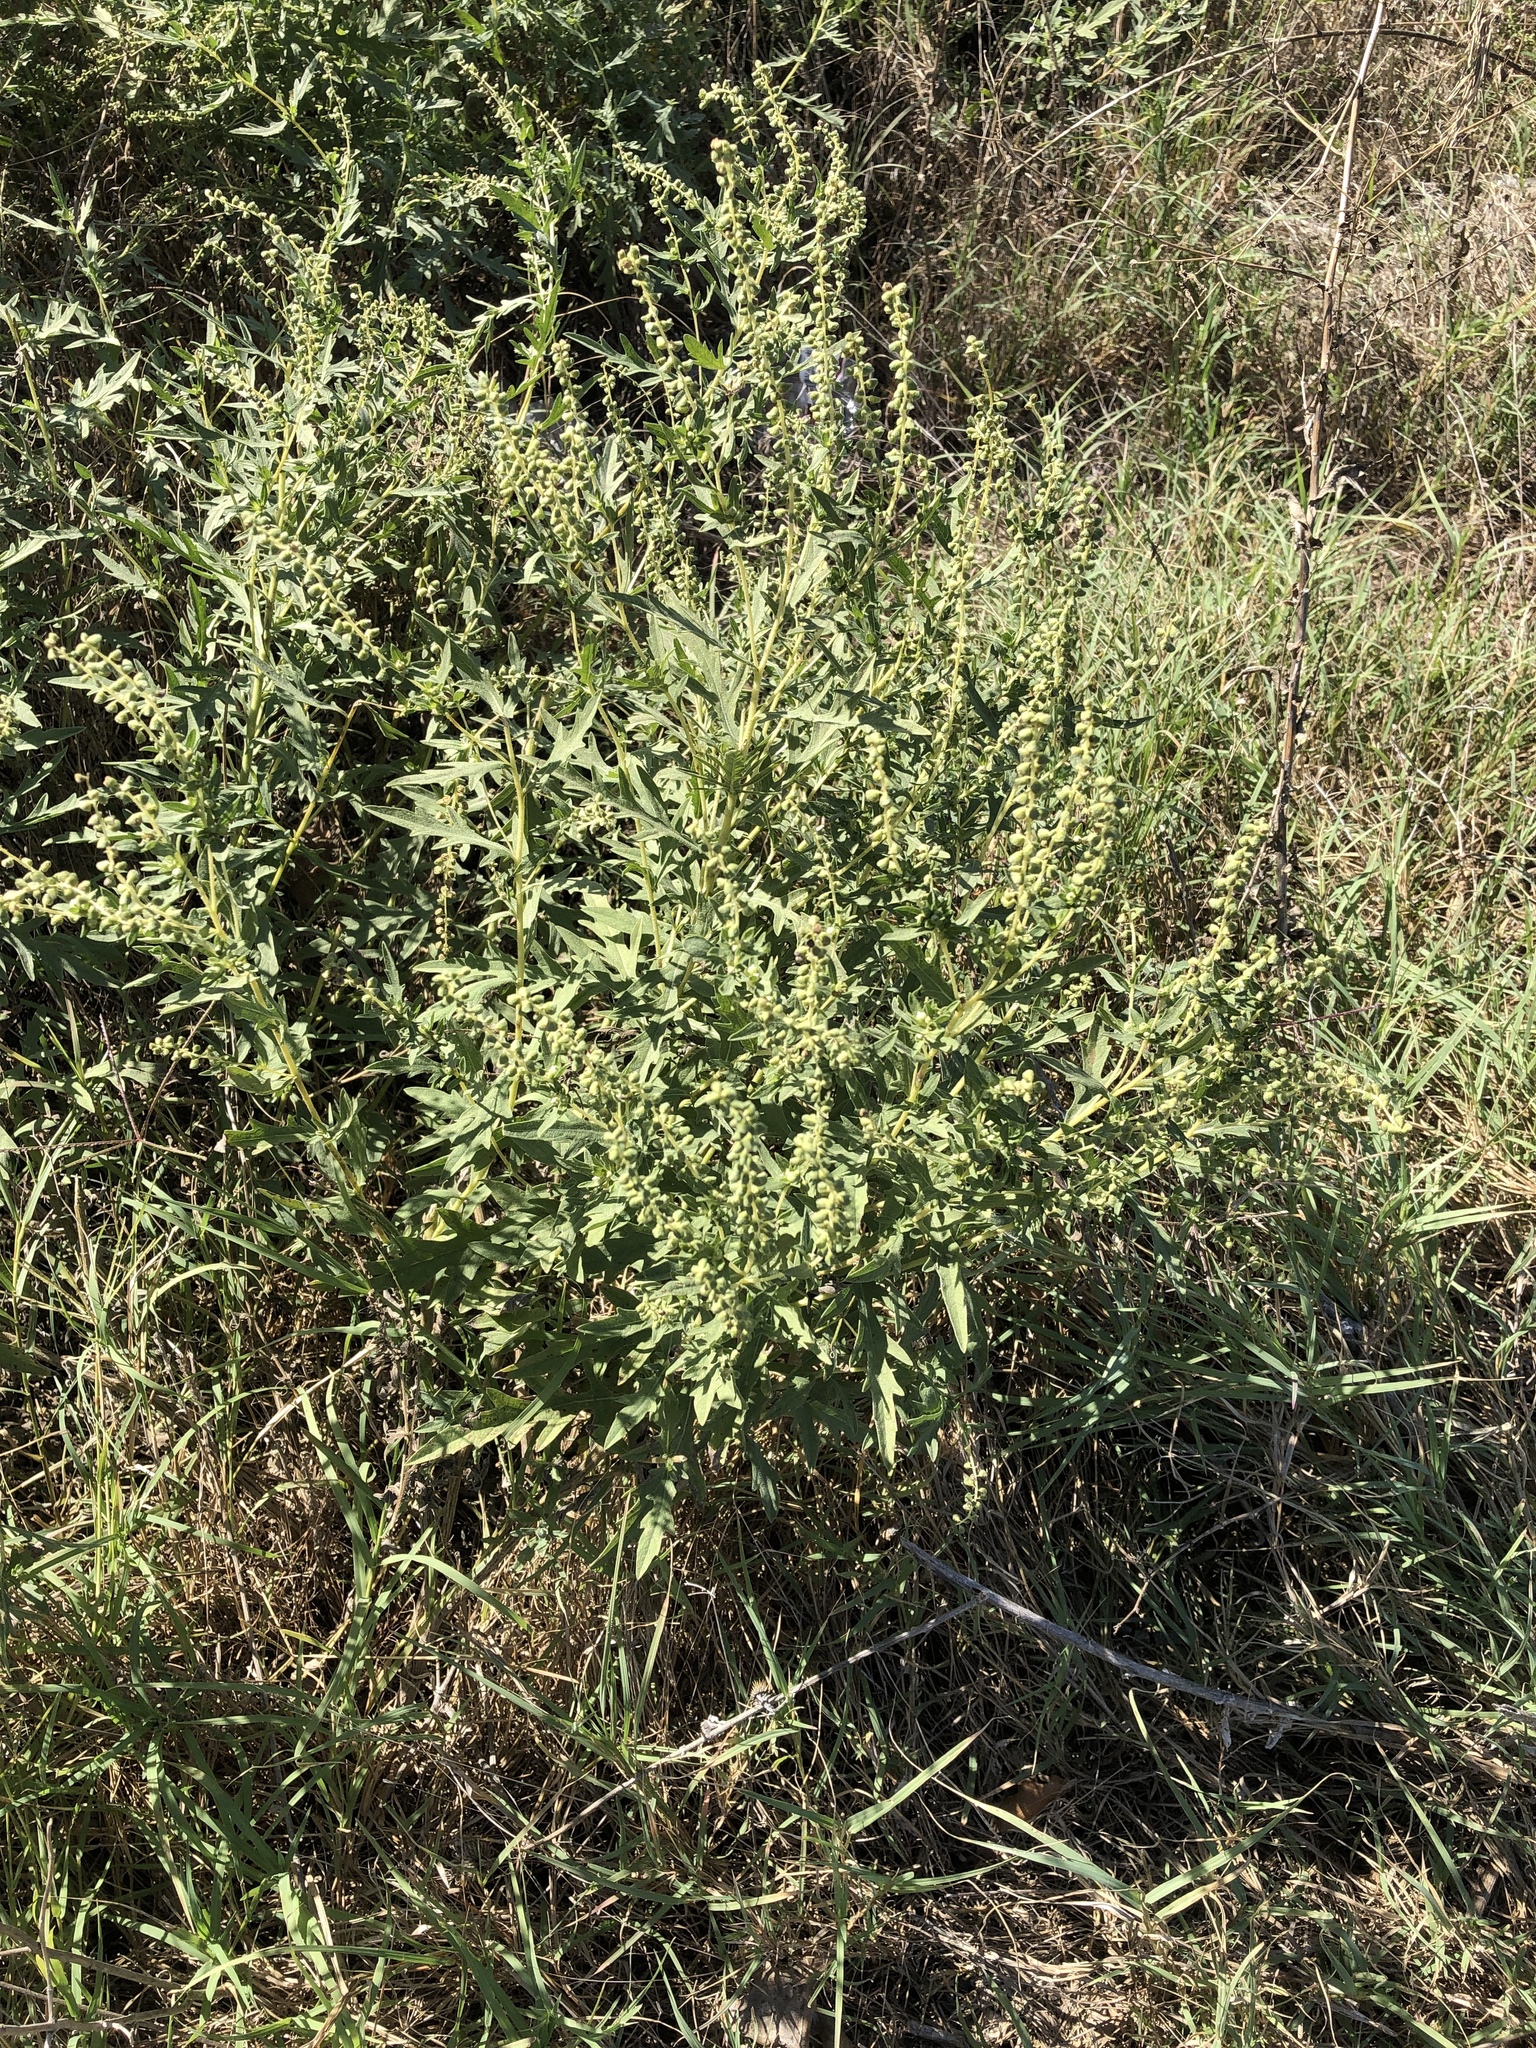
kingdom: Plantae
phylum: Tracheophyta
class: Magnoliopsida
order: Asterales
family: Asteraceae
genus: Ambrosia
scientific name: Ambrosia psilostachya
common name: Perennial ragweed
